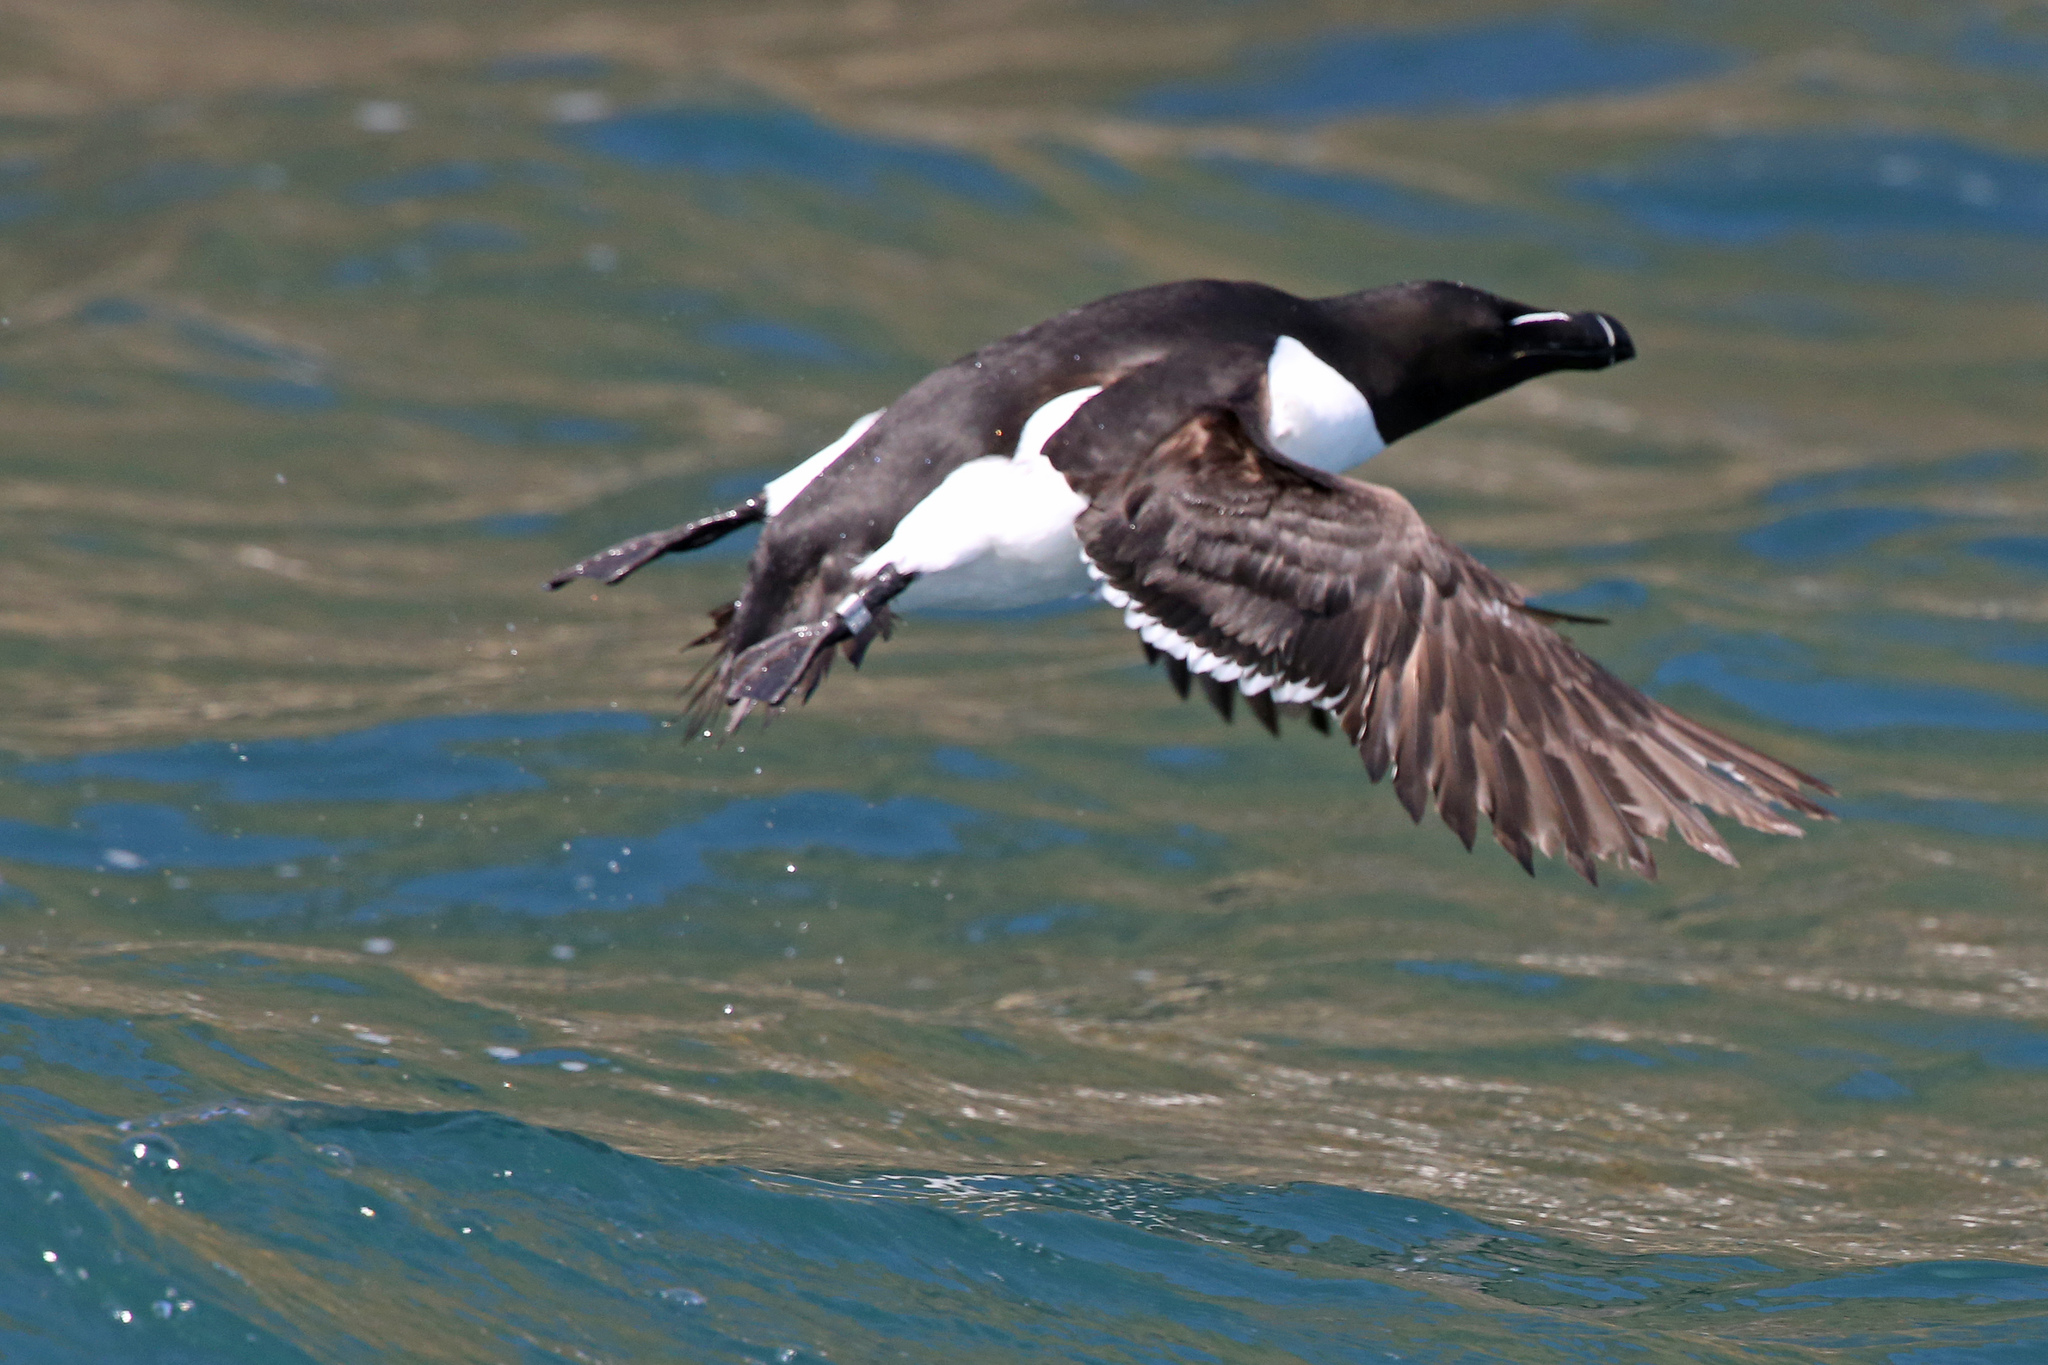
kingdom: Animalia
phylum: Chordata
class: Aves
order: Charadriiformes
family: Alcidae
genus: Alca
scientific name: Alca torda
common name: Razorbill
